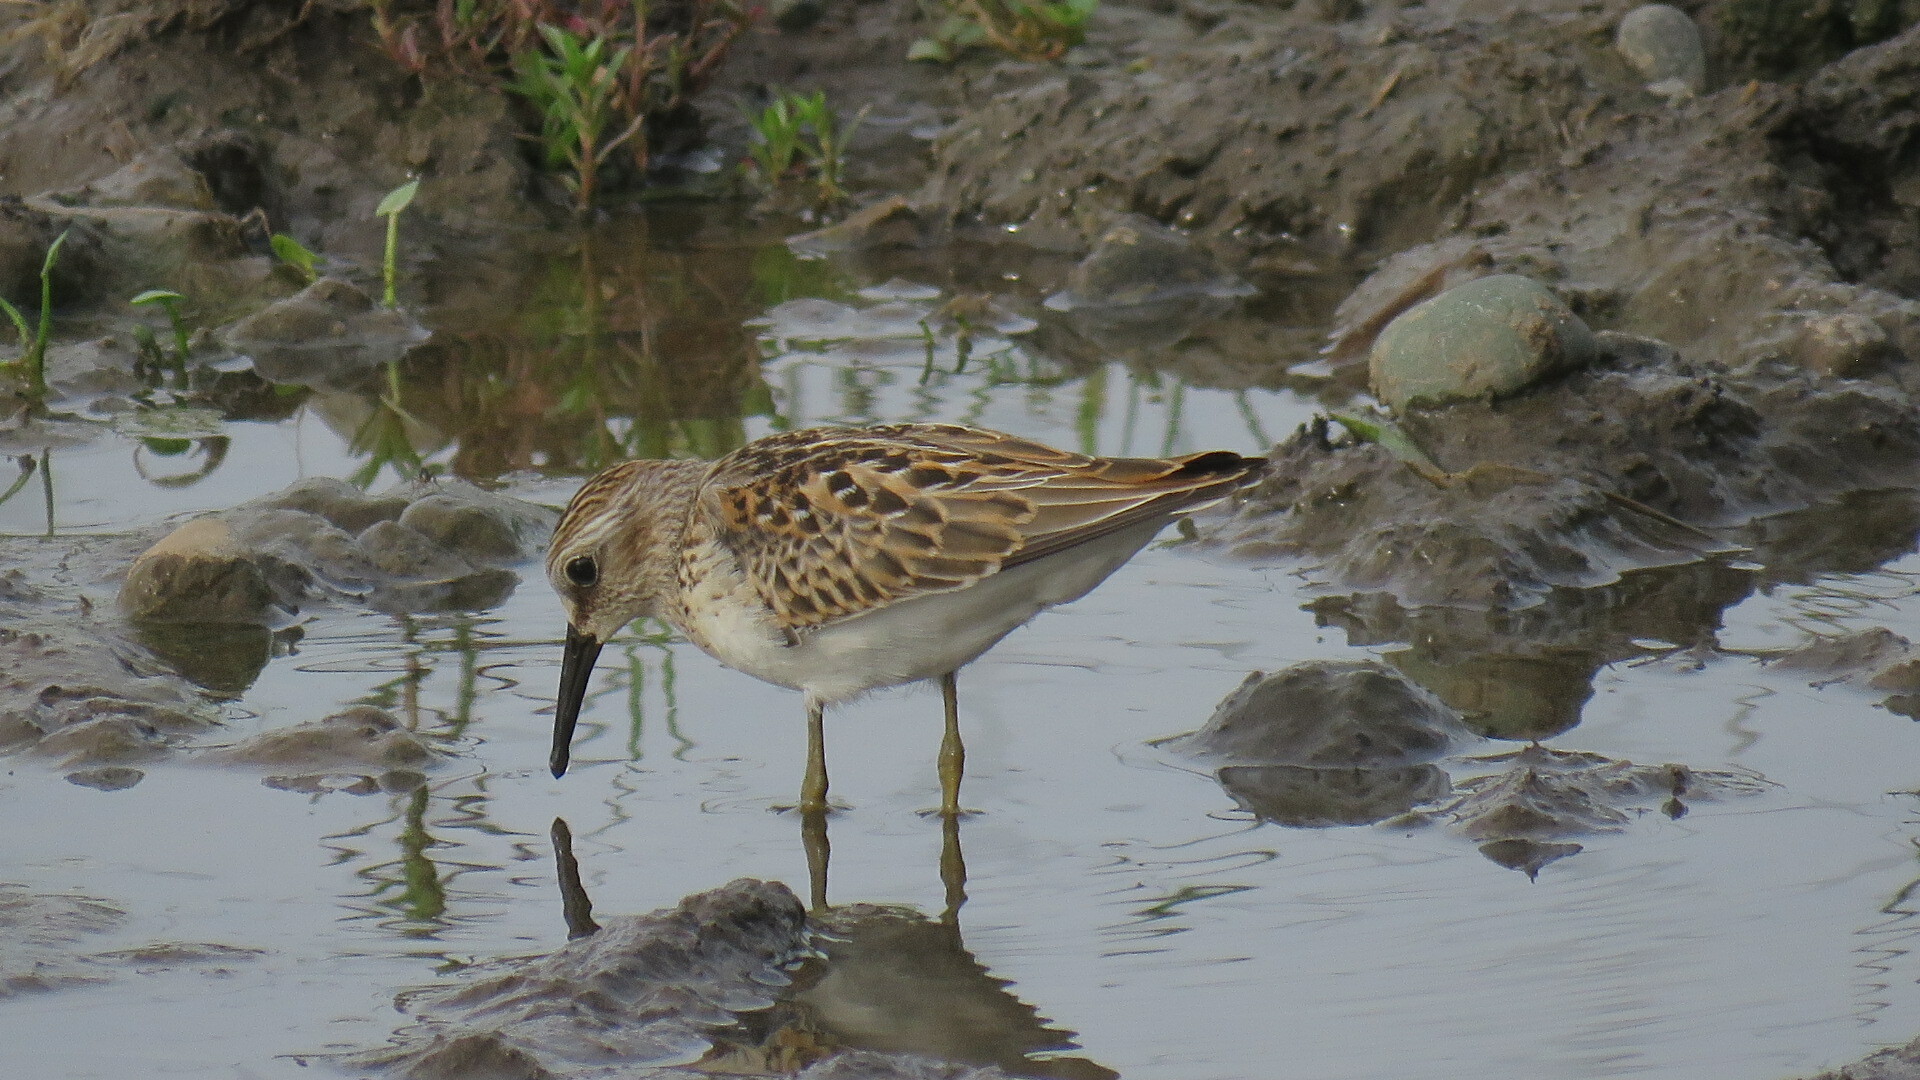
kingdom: Animalia
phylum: Chordata
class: Aves
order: Charadriiformes
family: Scolopacidae
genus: Calidris
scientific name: Calidris minutilla
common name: Least sandpiper
